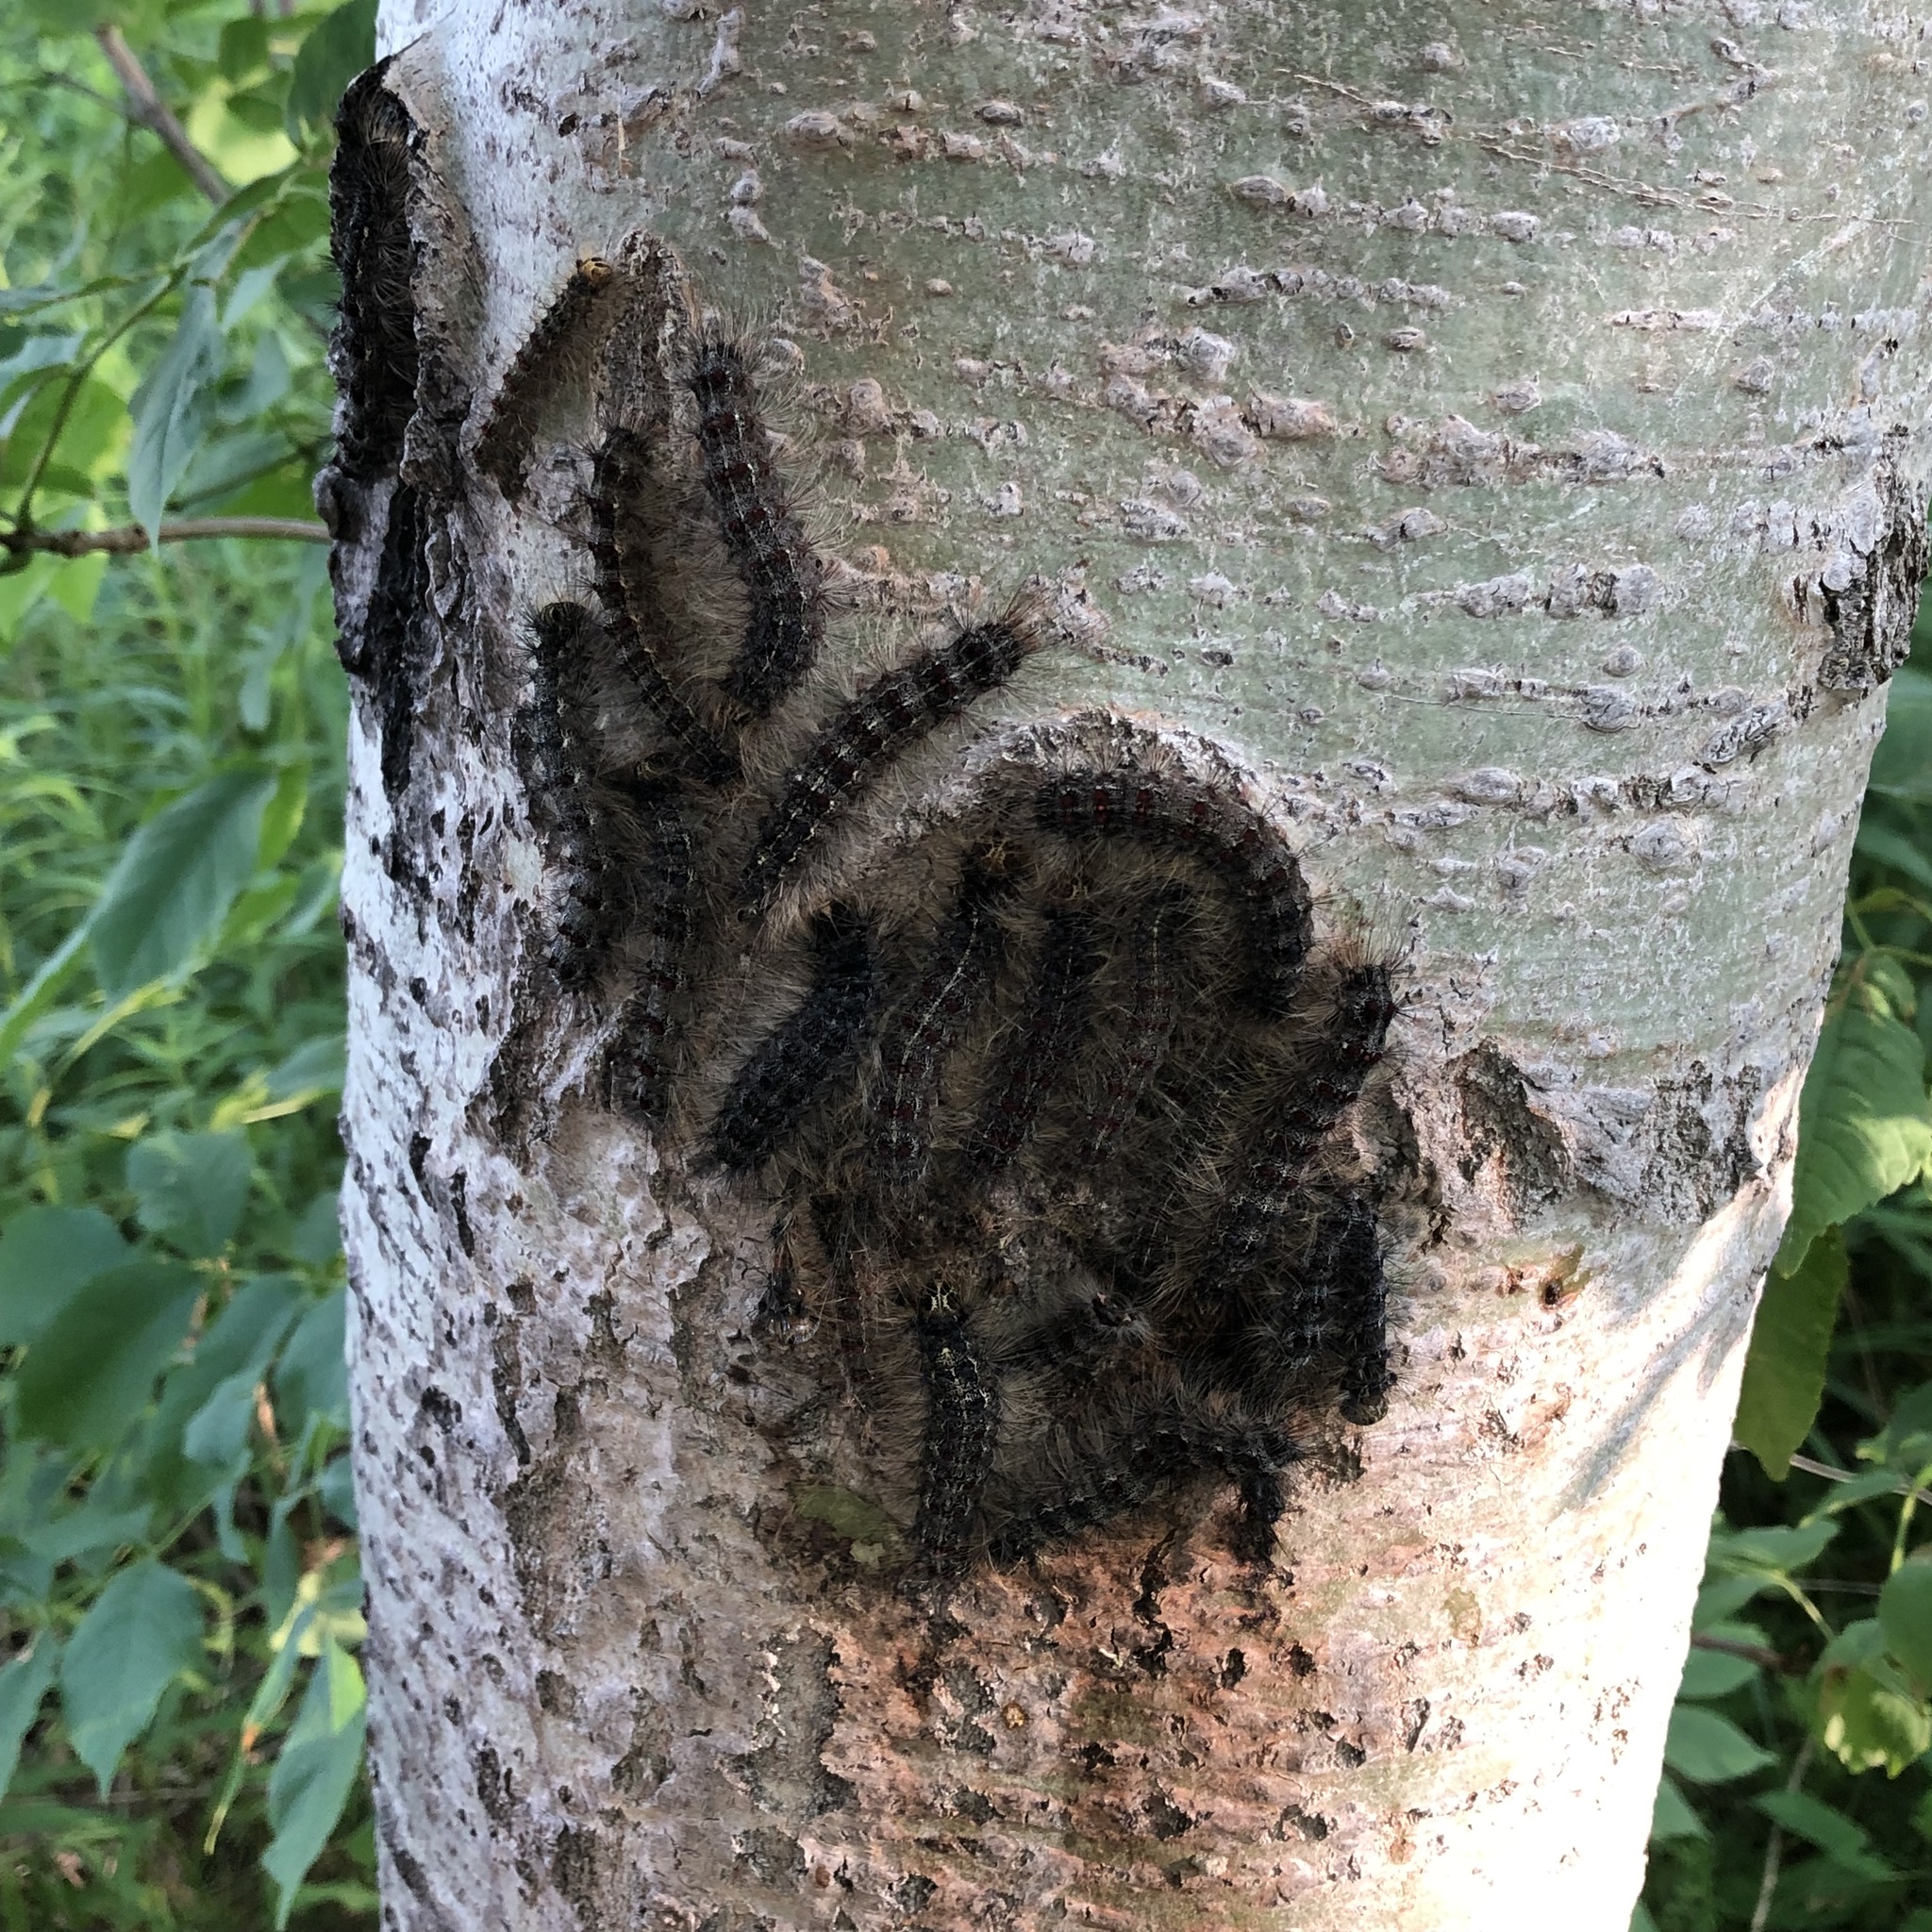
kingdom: Animalia
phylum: Arthropoda
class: Insecta
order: Lepidoptera
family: Erebidae
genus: Lymantria
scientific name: Lymantria dispar
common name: Gypsy moth
